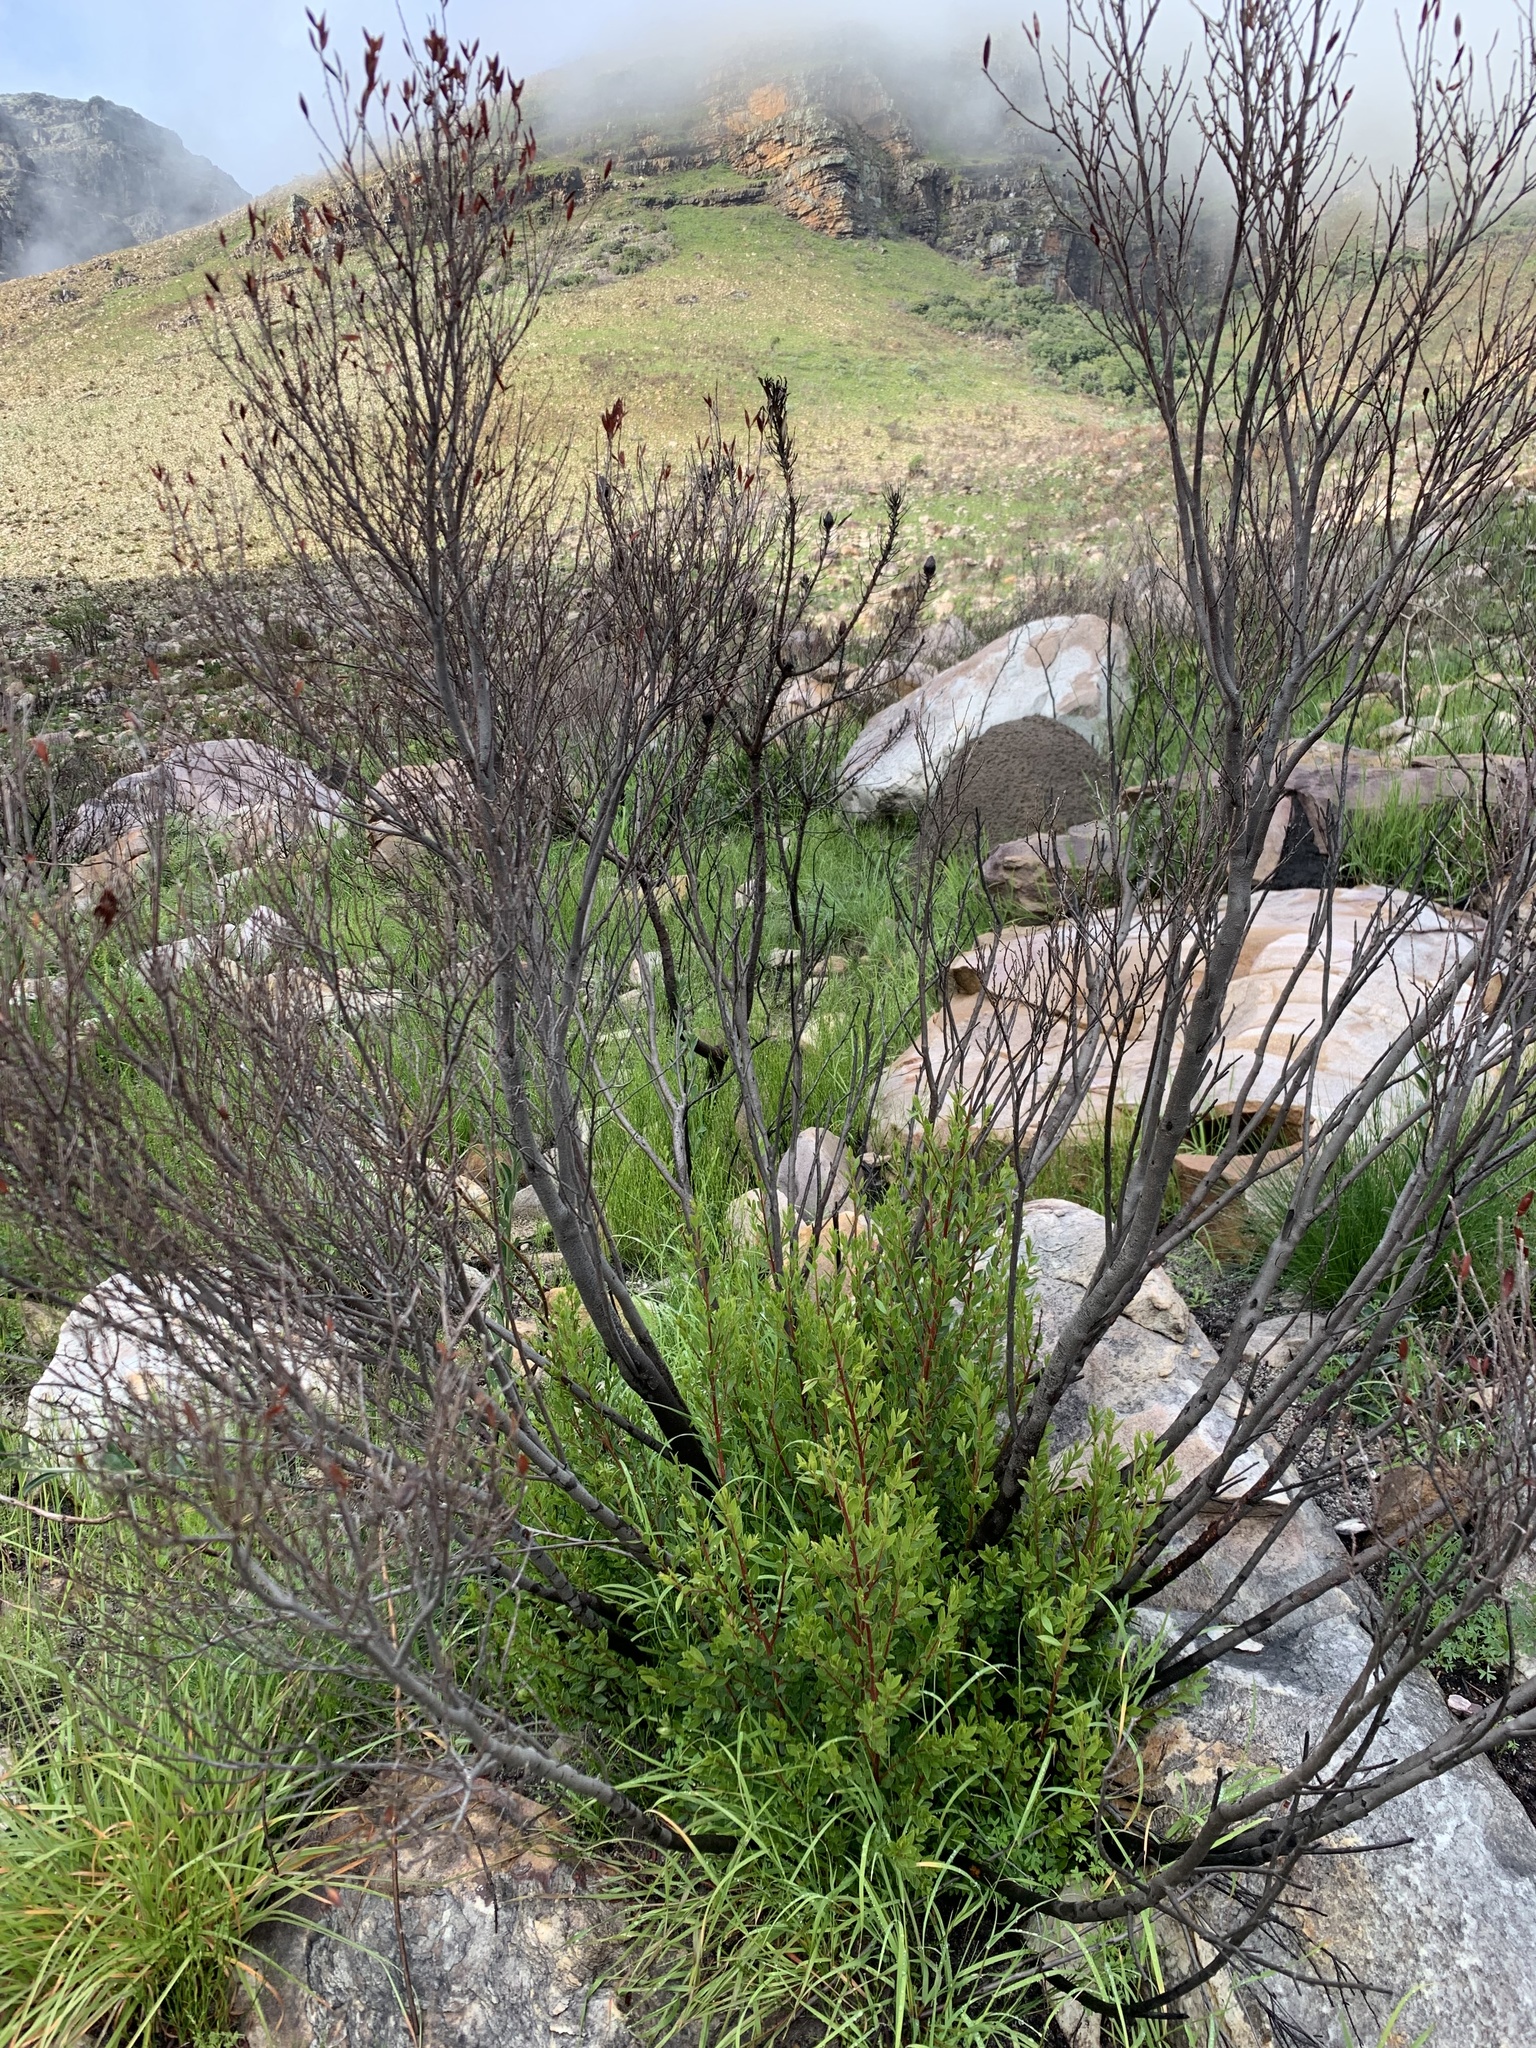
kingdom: Plantae
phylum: Tracheophyta
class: Magnoliopsida
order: Ericales
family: Ebenaceae
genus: Diospyros
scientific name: Diospyros glabra
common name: Fynbos star apple
